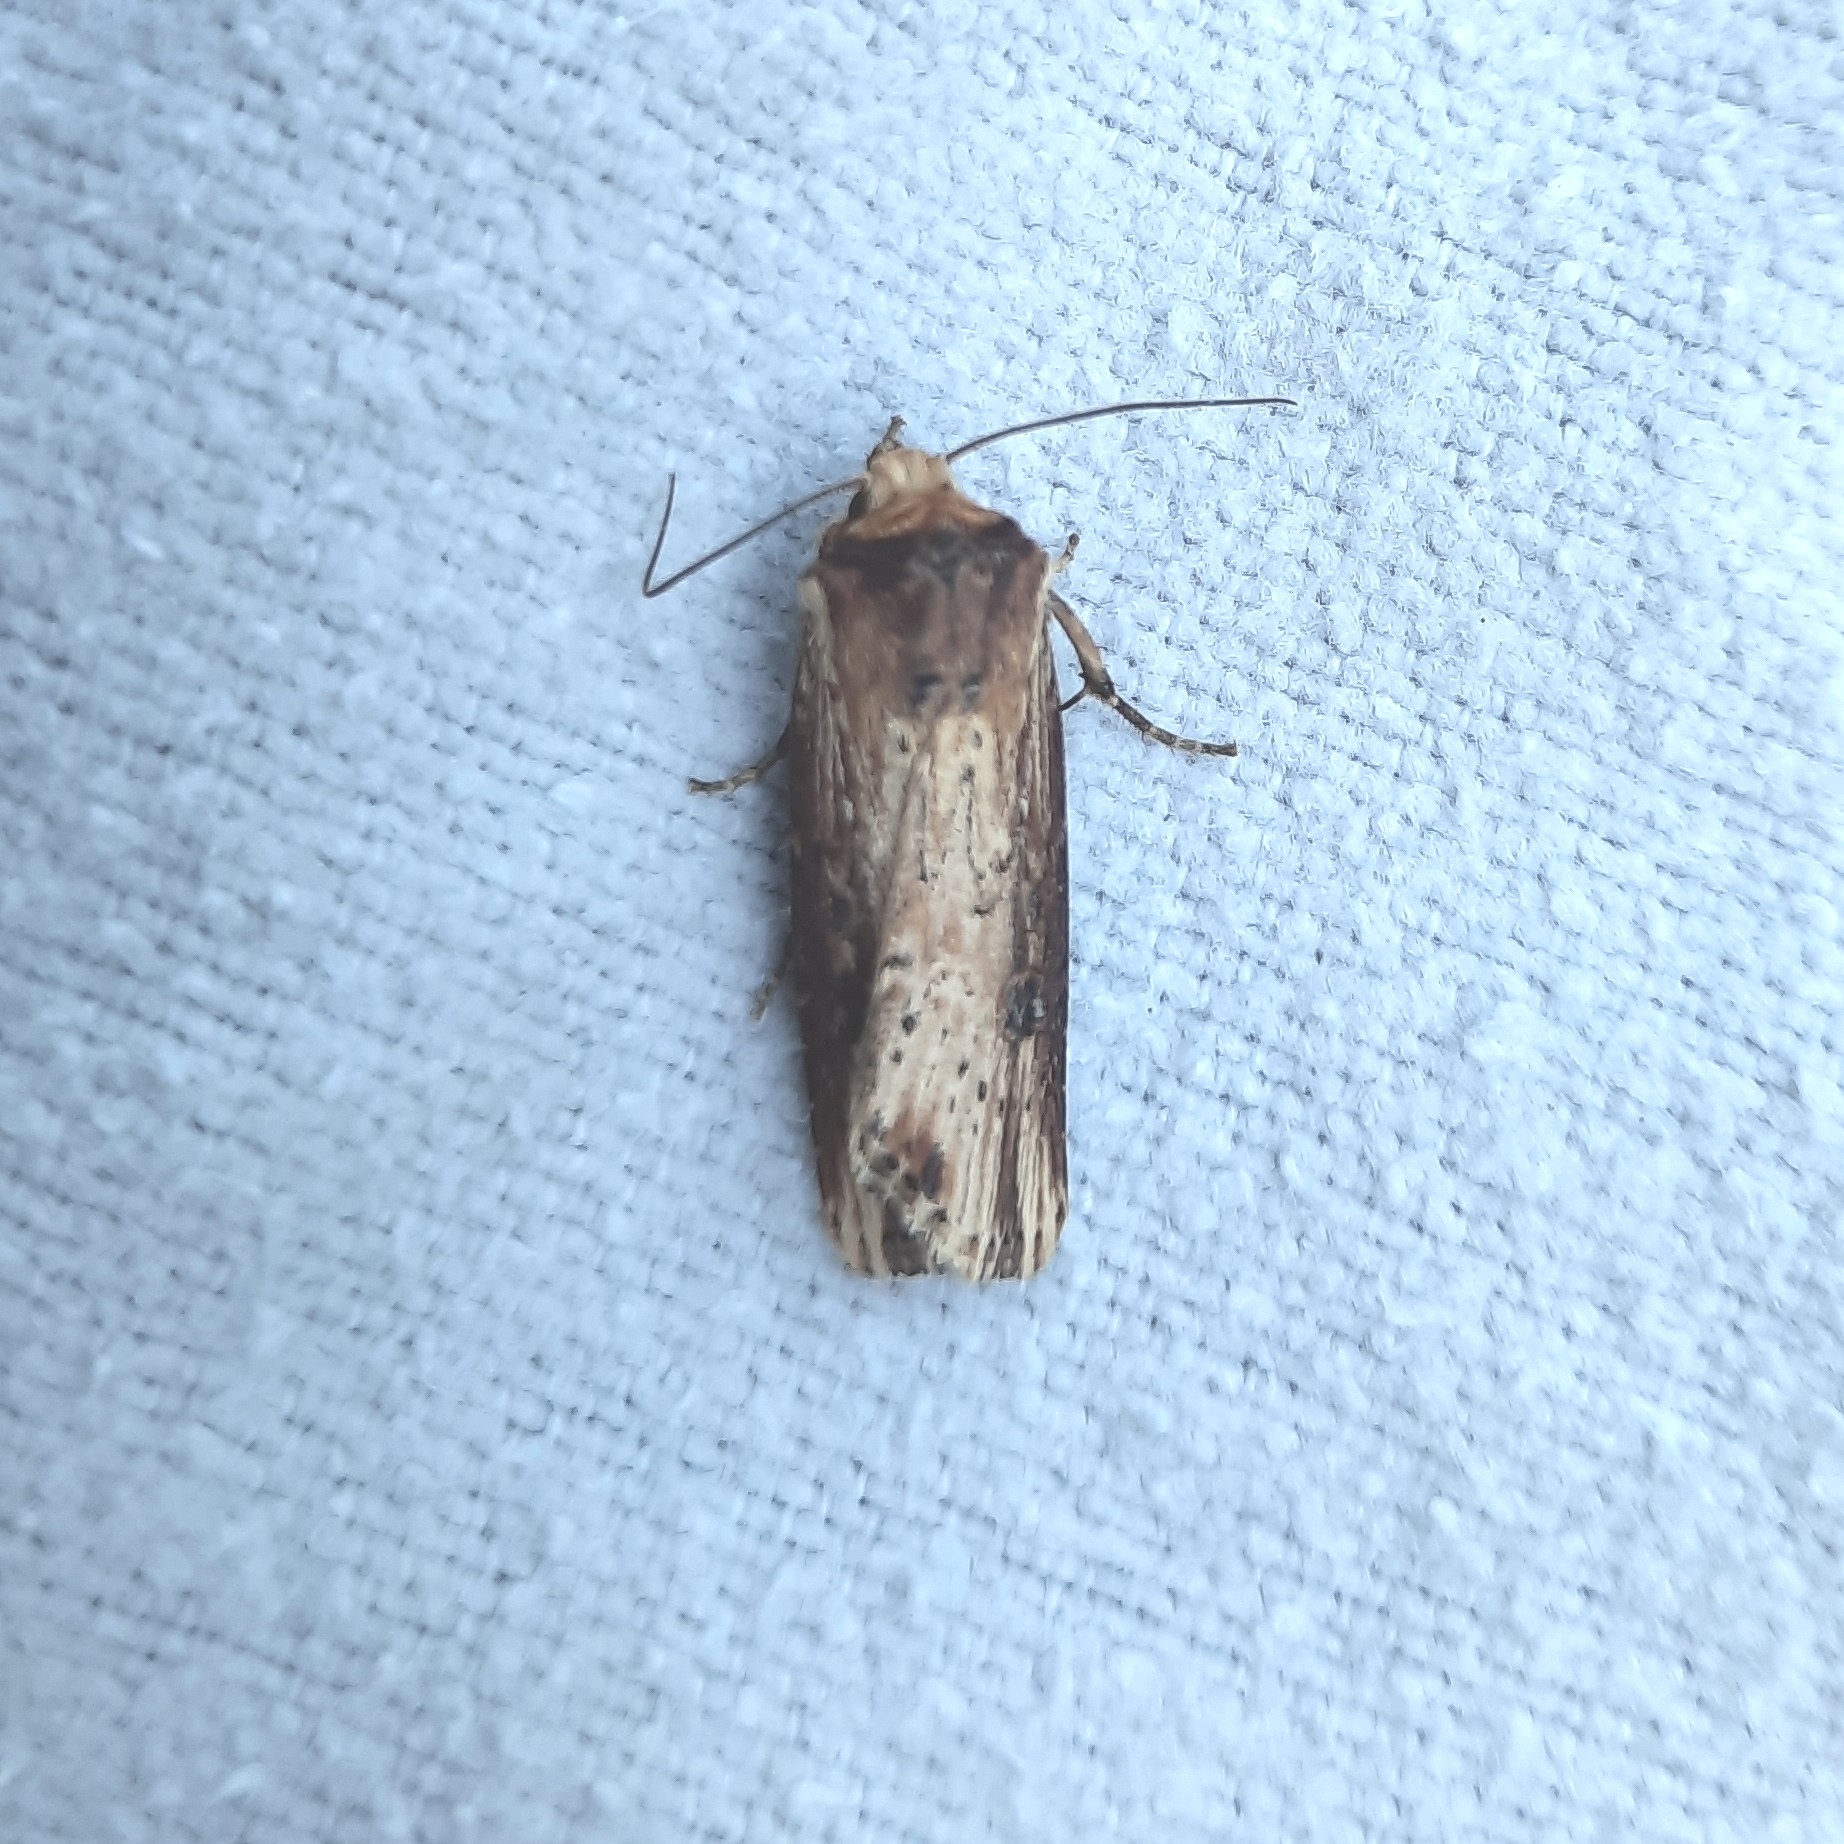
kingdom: Animalia
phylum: Arthropoda
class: Insecta
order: Lepidoptera
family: Noctuidae
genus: Axylia
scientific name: Axylia putris
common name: Flame
